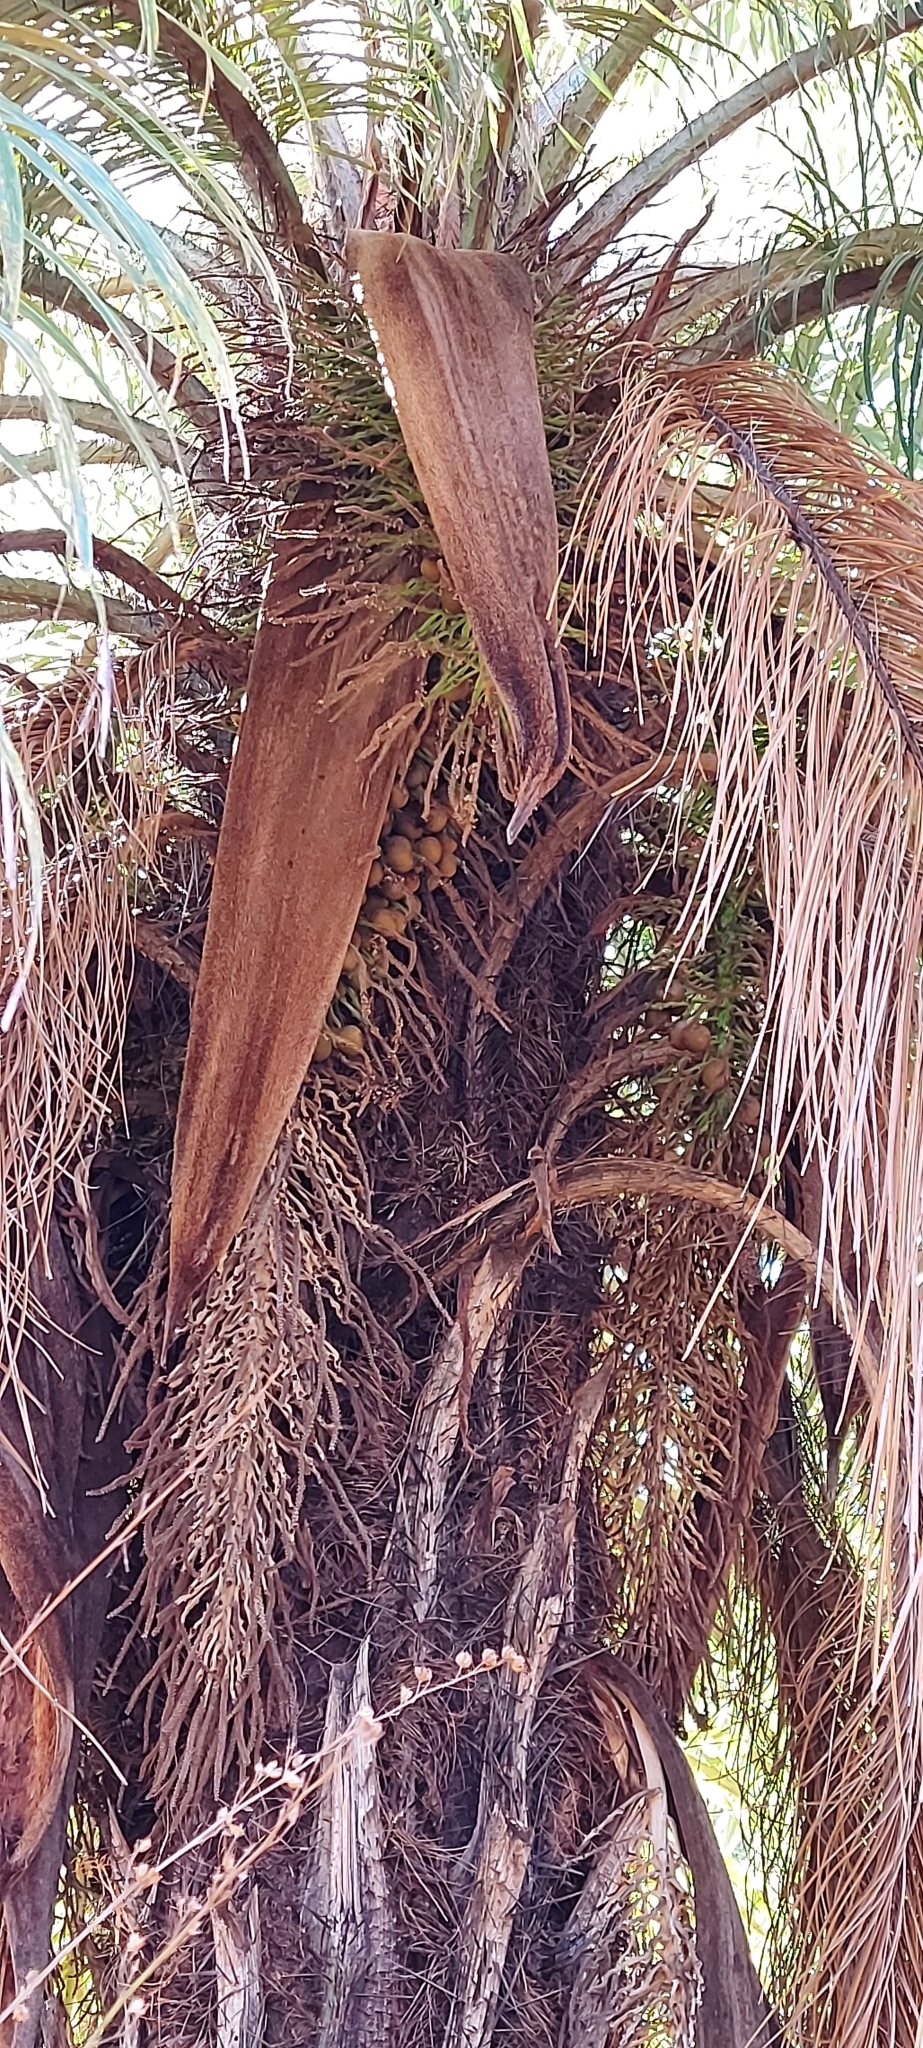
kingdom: Plantae
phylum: Tracheophyta
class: Liliopsida
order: Arecales
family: Arecaceae
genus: Acrocomia
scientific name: Acrocomia aculeata
